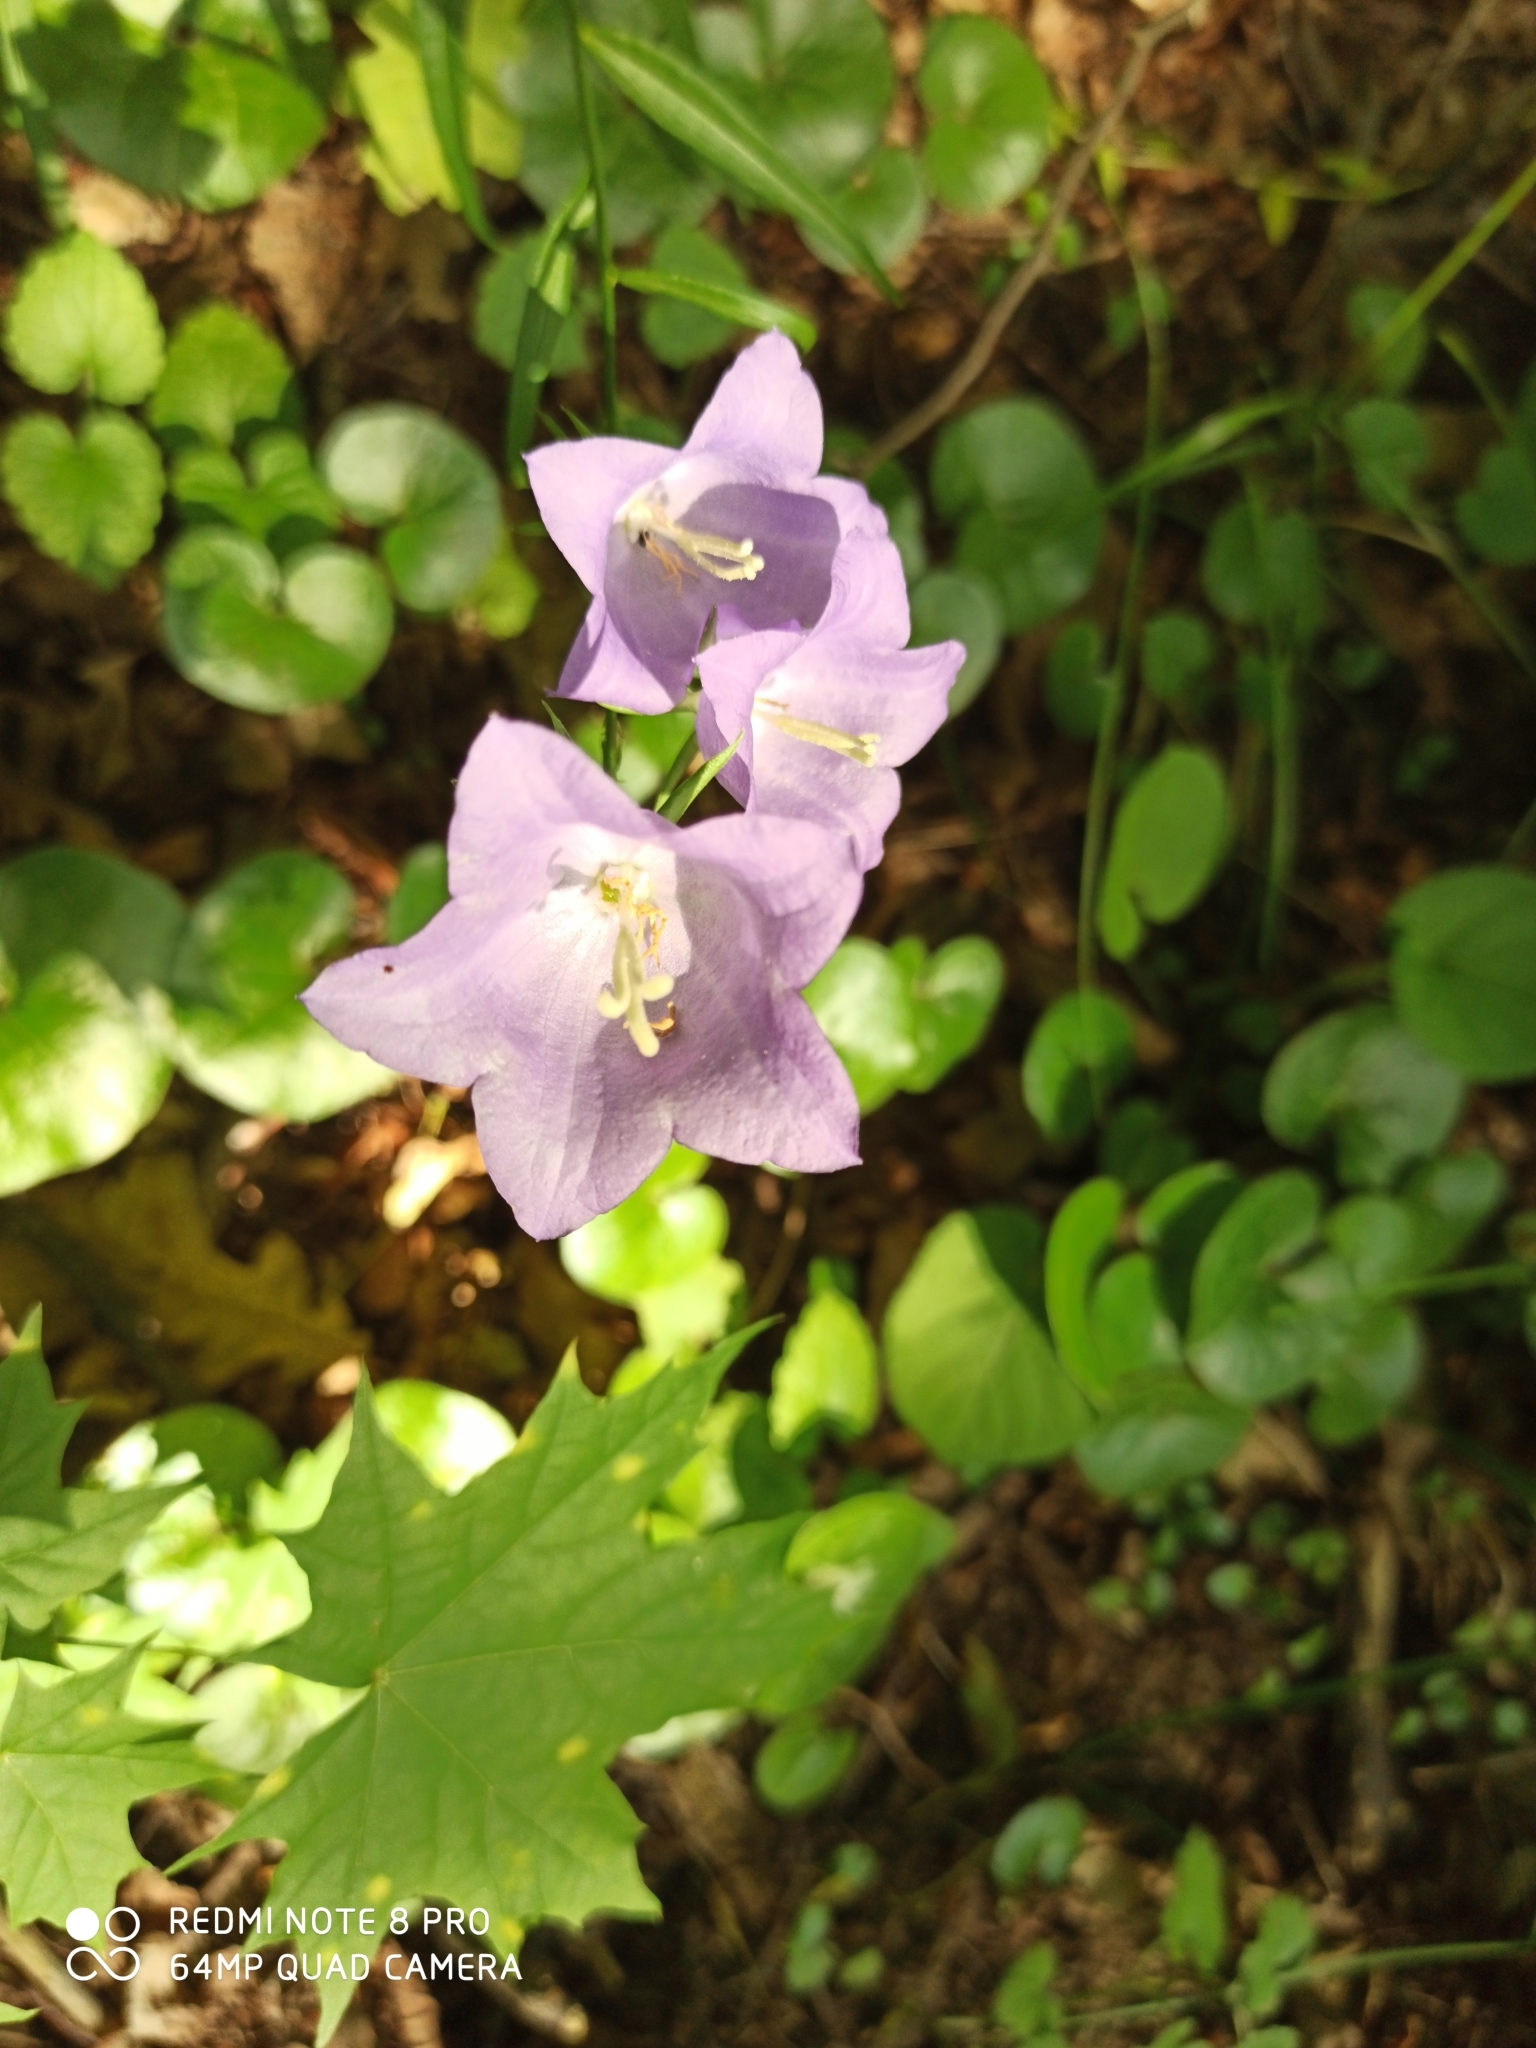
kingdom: Plantae
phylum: Tracheophyta
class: Magnoliopsida
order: Asterales
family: Campanulaceae
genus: Campanula
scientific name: Campanula persicifolia
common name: Peach-leaved bellflower
